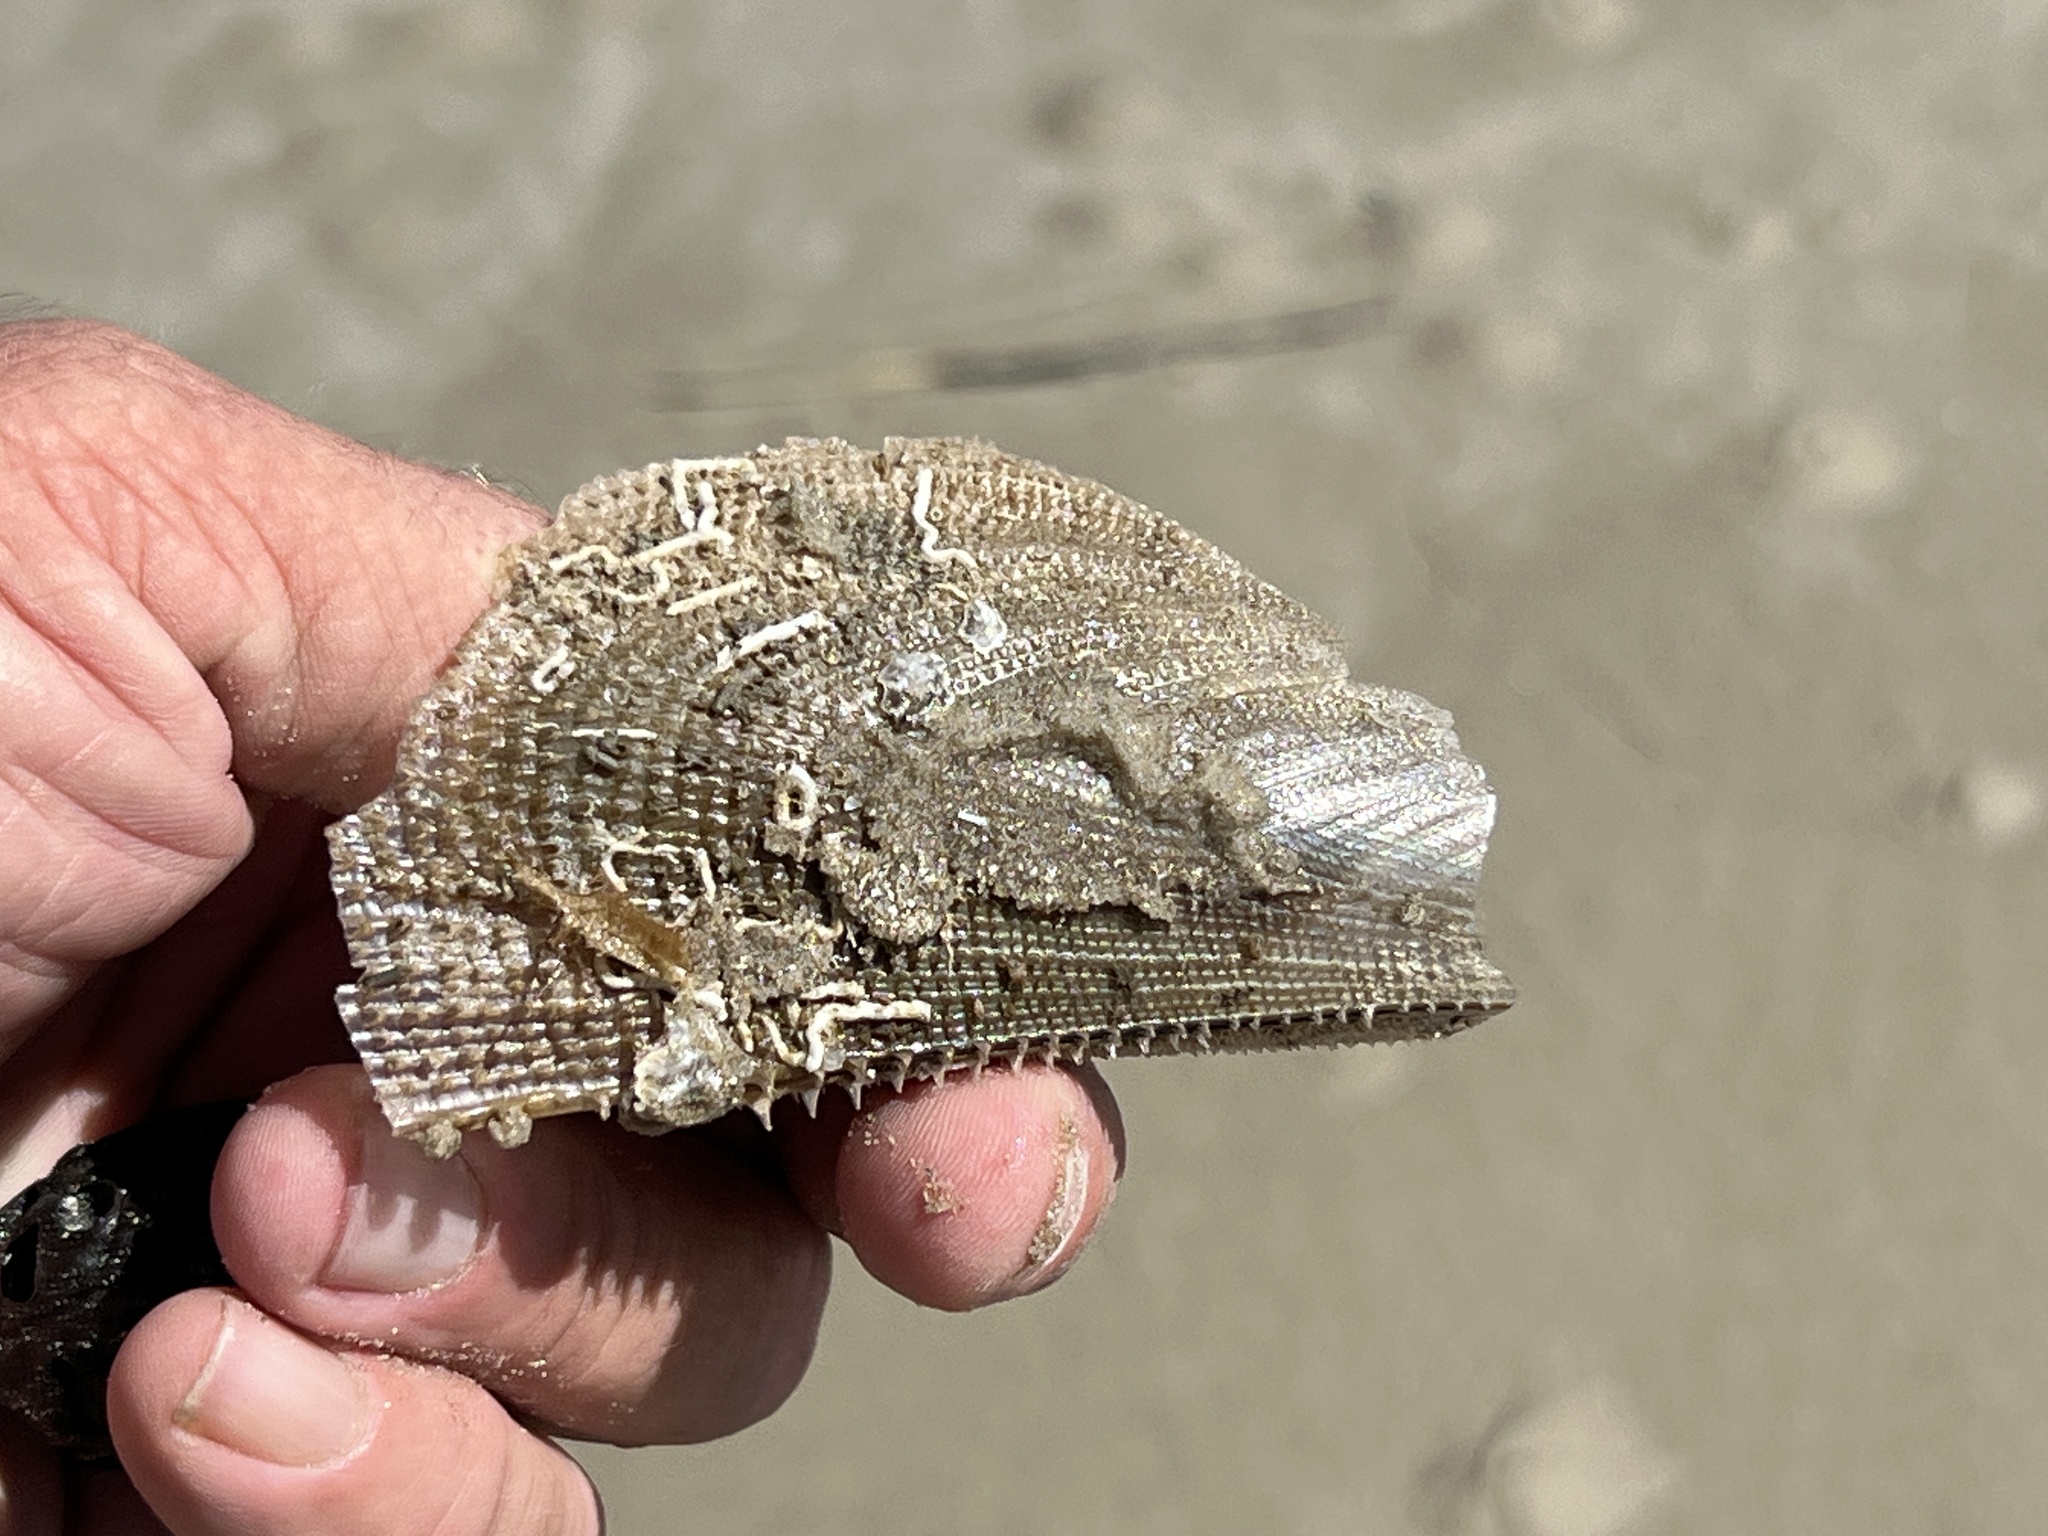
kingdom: Animalia
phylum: Mollusca
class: Bivalvia
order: Ostreida
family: Pinnidae
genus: Atrina
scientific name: Atrina serrata
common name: Saw-toothed penshell
